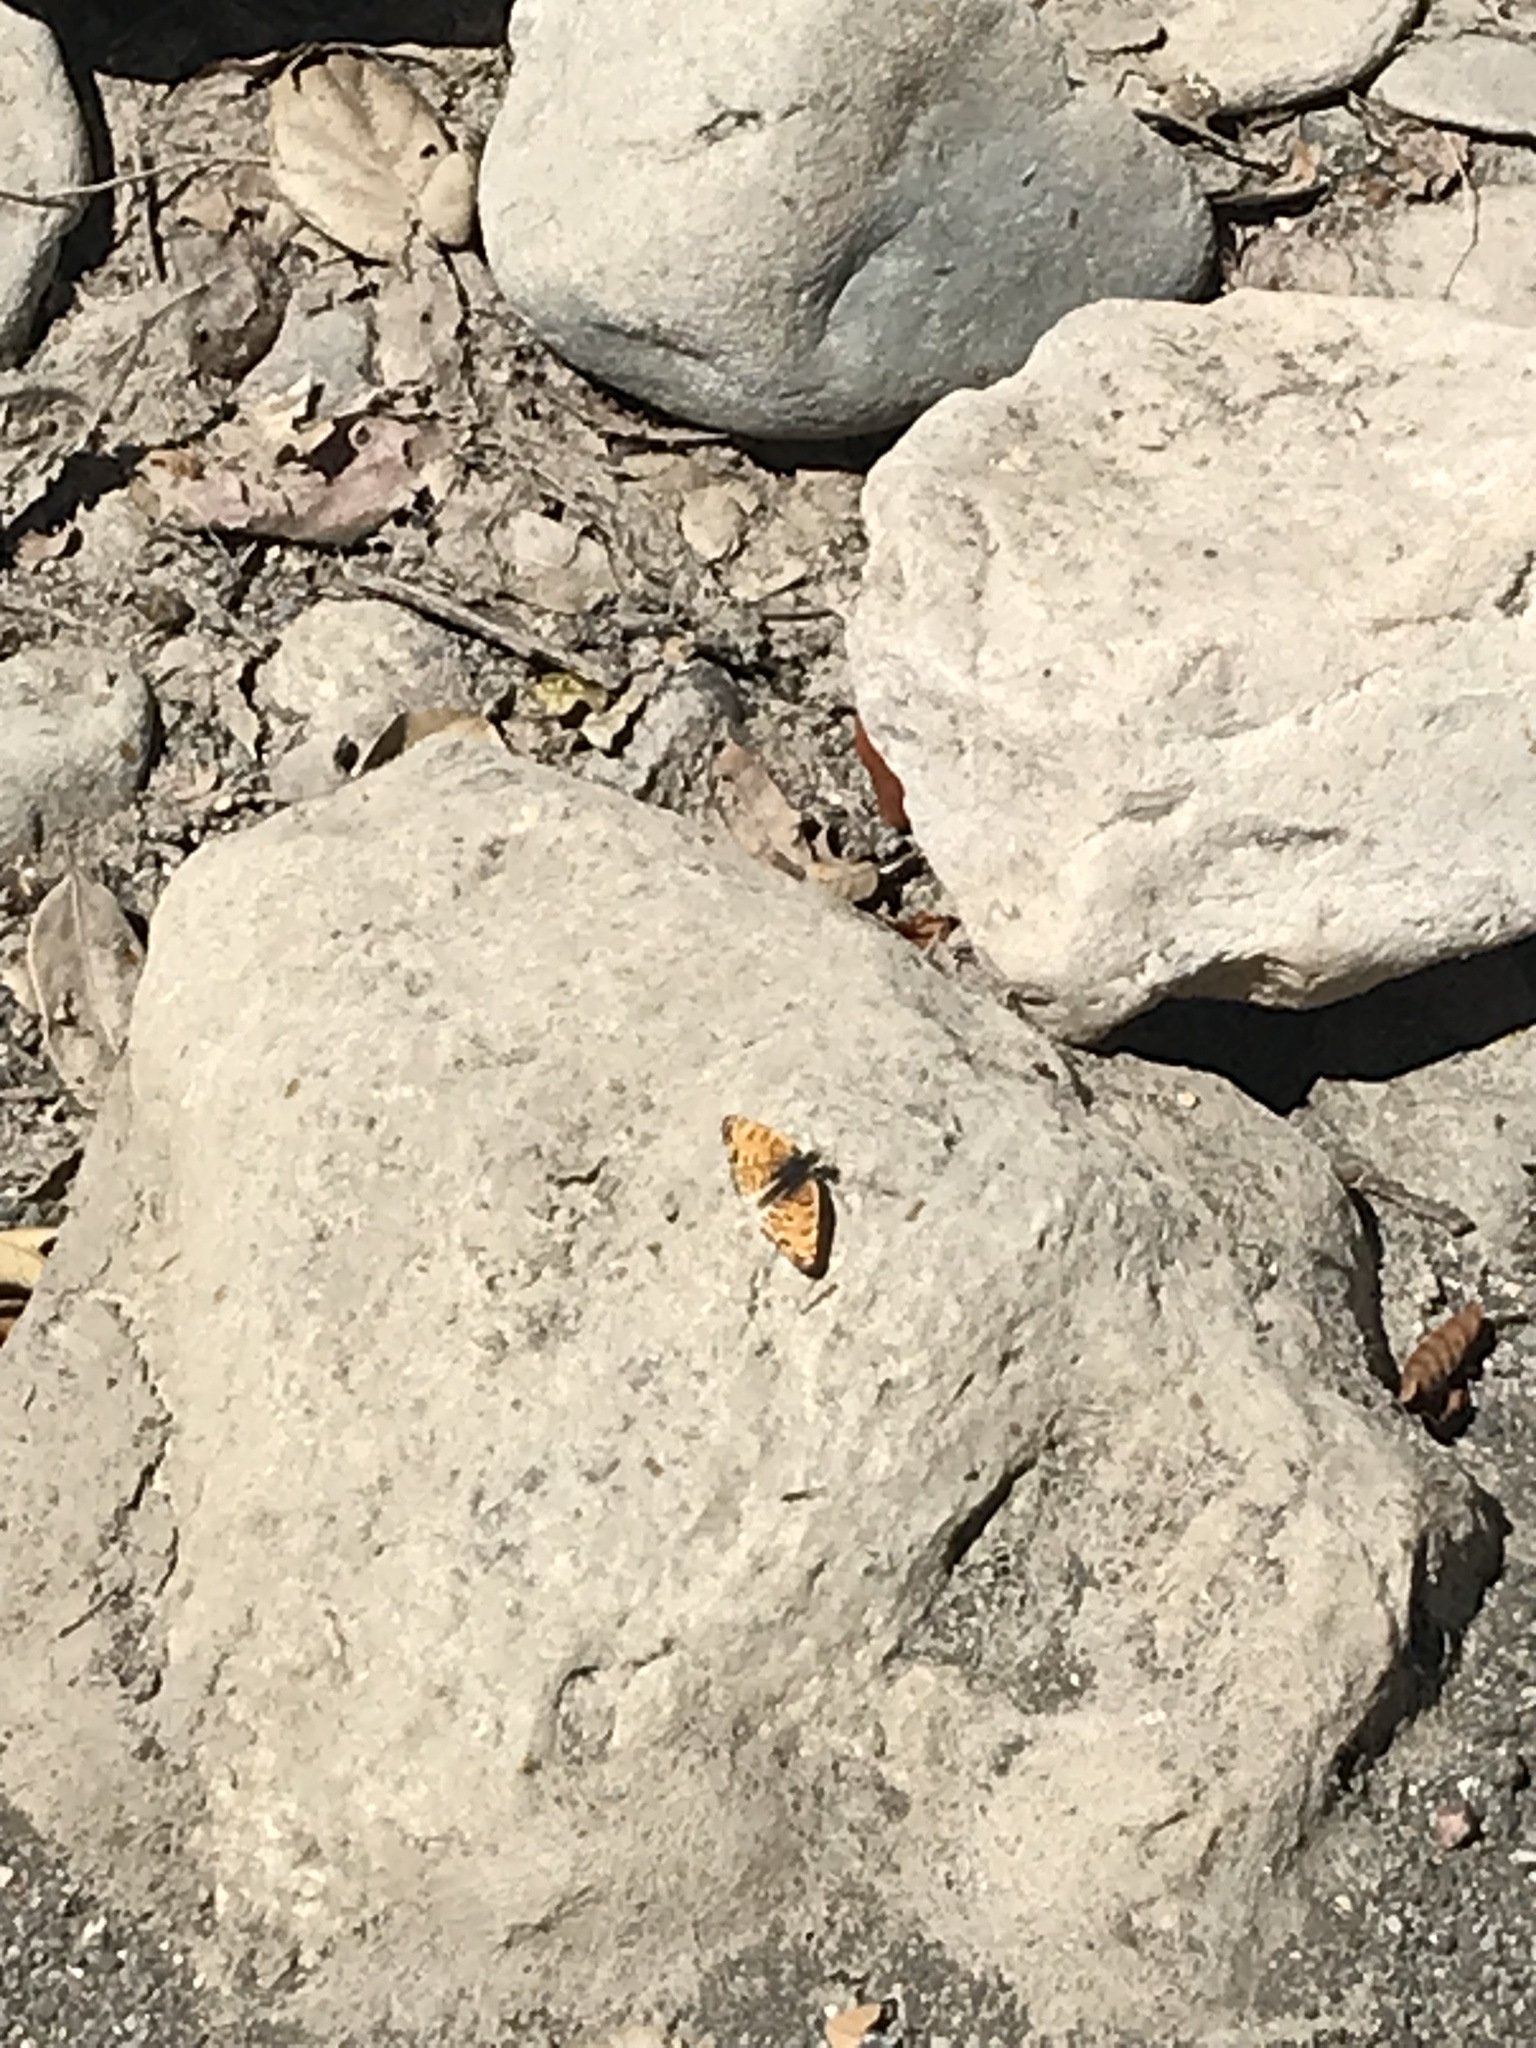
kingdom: Animalia
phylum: Arthropoda
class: Insecta
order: Lepidoptera
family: Nymphalidae
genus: Eresia
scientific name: Eresia aveyrona
